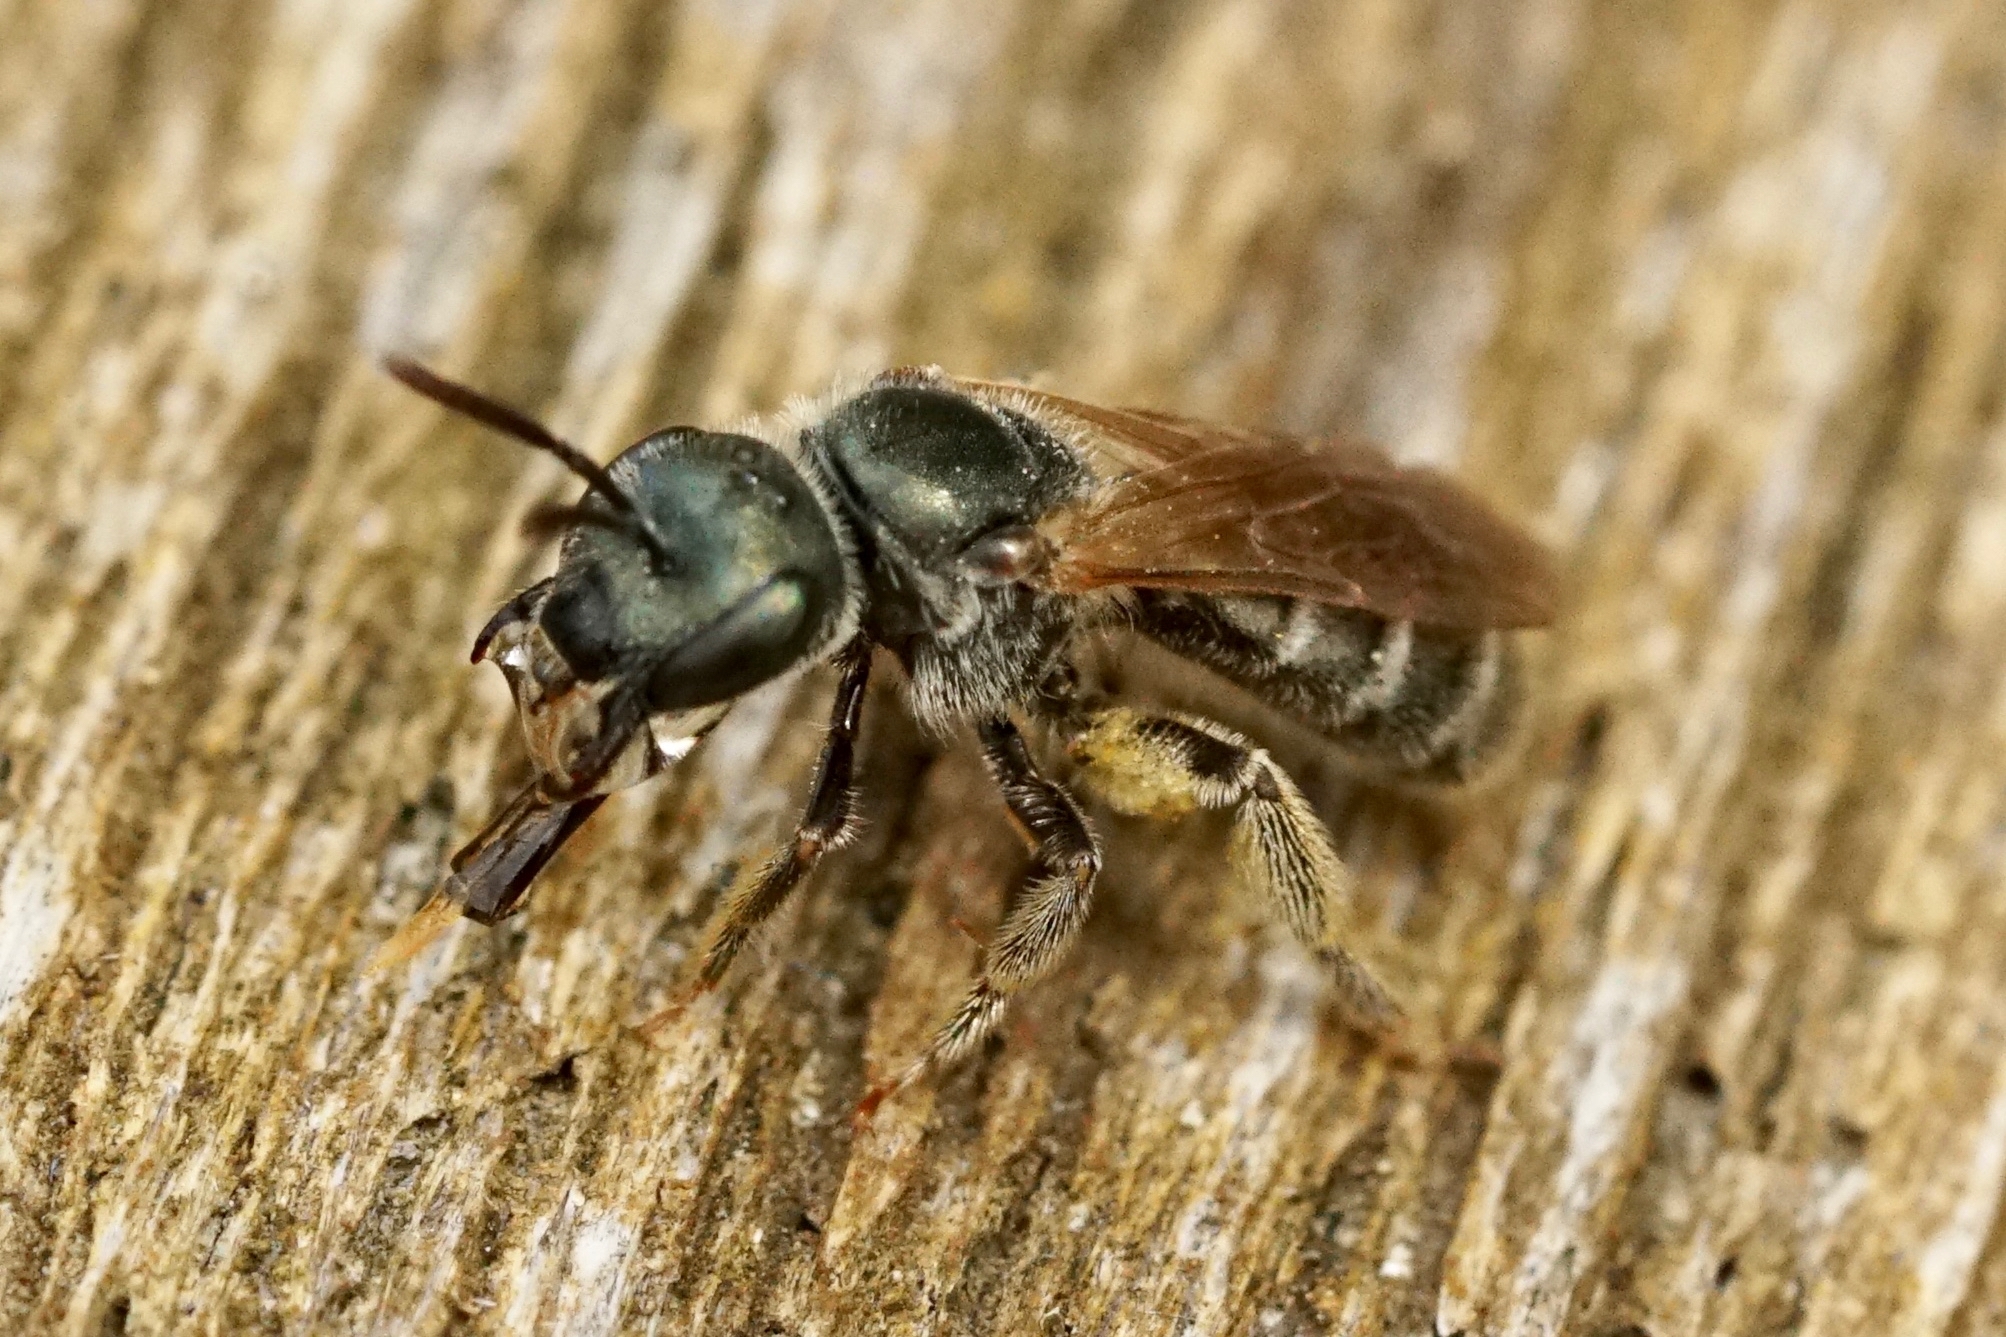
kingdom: Animalia
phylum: Arthropoda
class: Insecta
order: Hymenoptera
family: Halictidae
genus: Halictus
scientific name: Halictus confusus
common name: Southern bronze furrow bee
